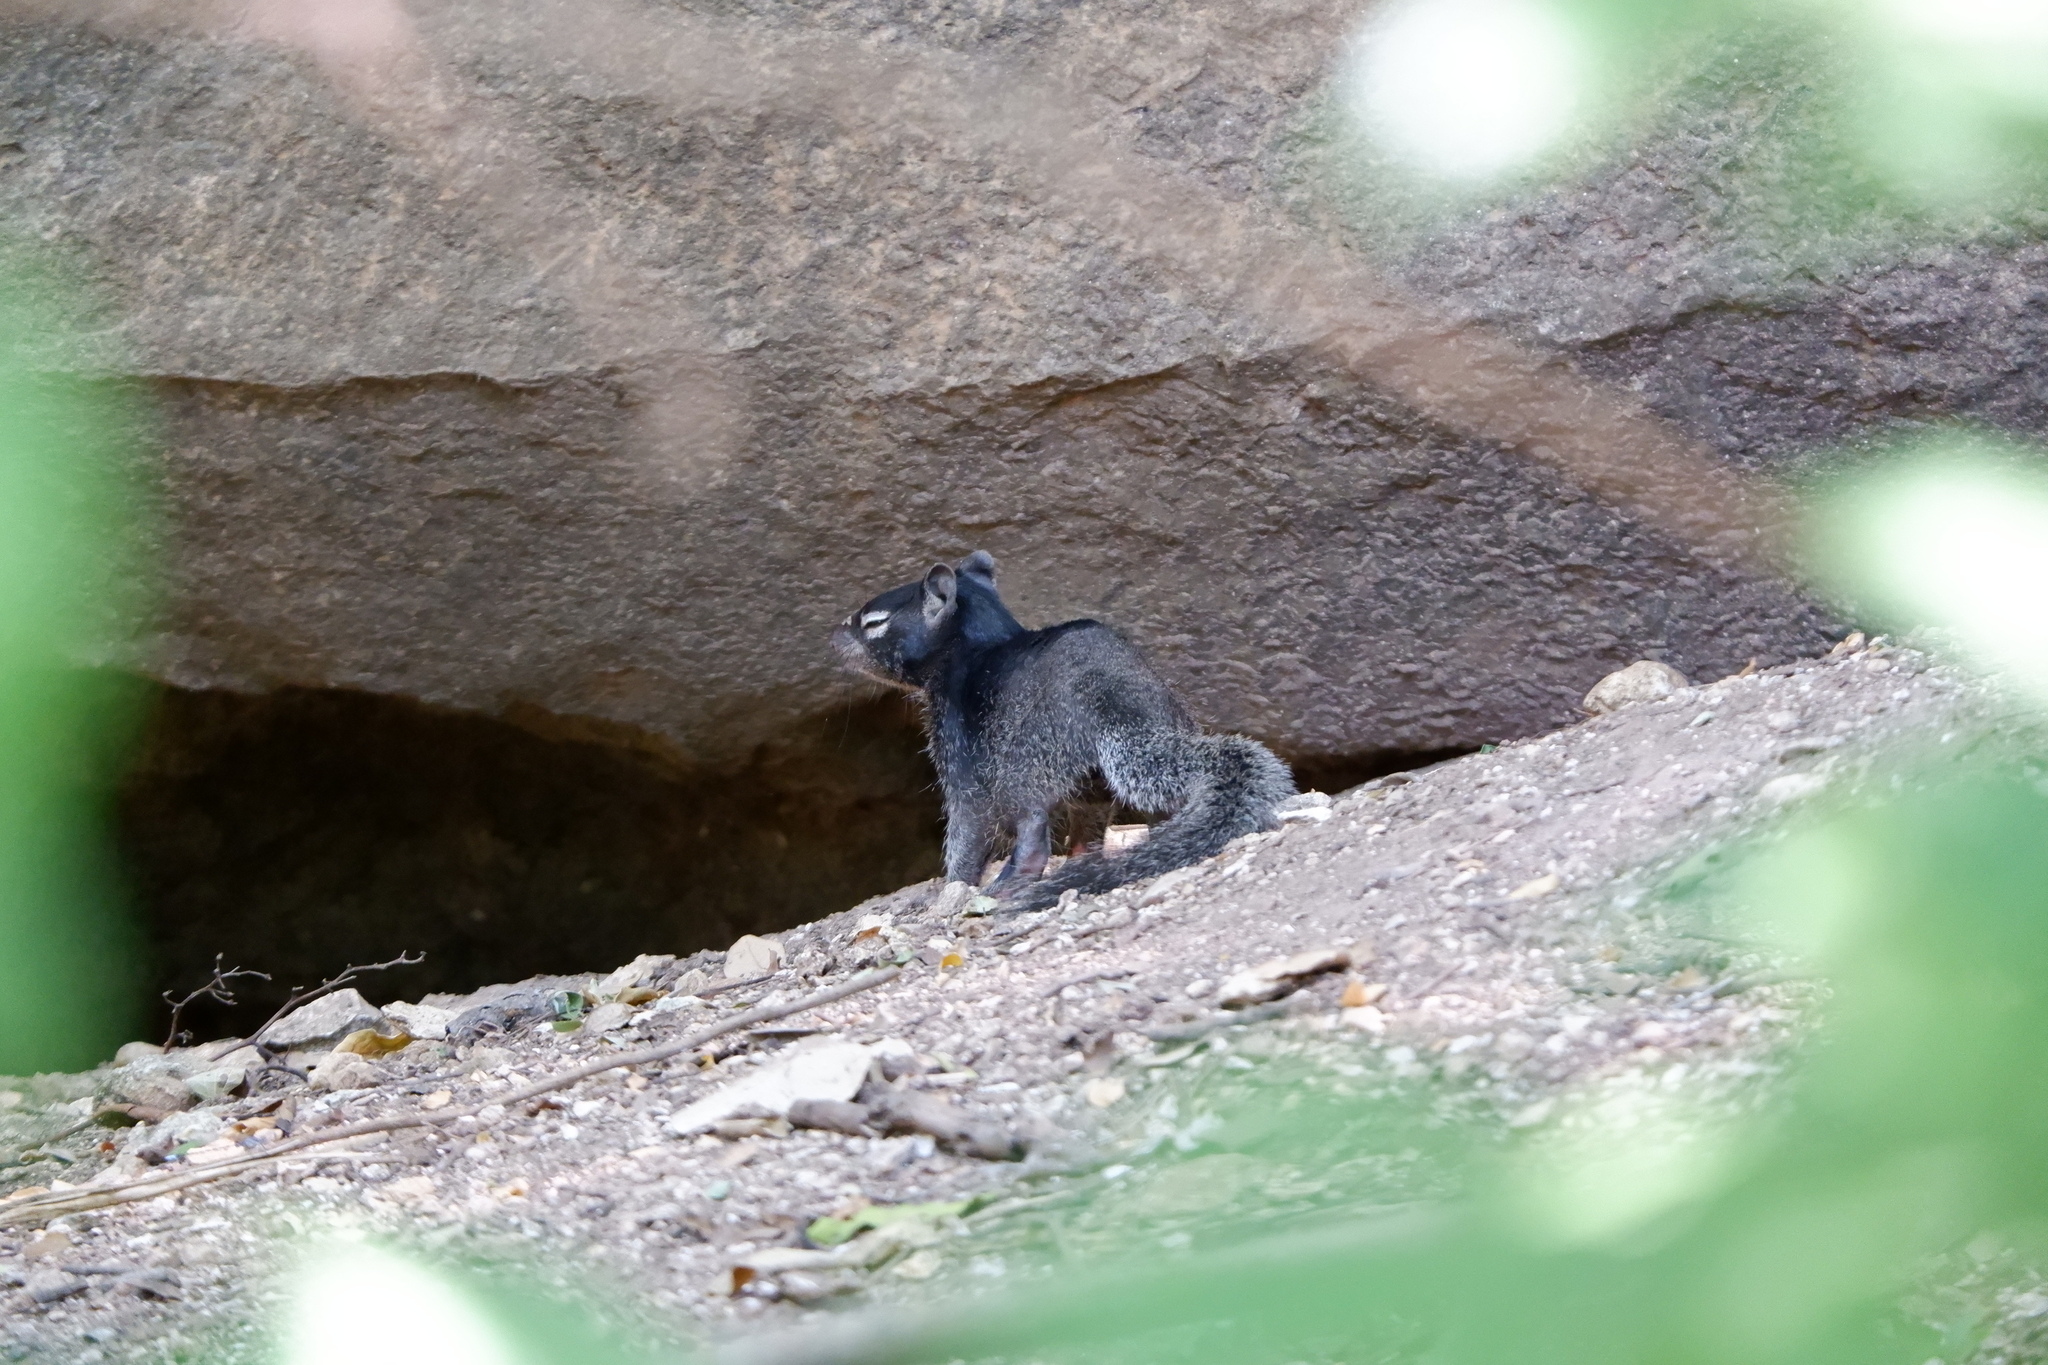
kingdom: Animalia
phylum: Chordata
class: Mammalia
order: Rodentia
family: Sciuridae
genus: Otospermophilus
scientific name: Otospermophilus variegatus
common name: Rock squirrel
